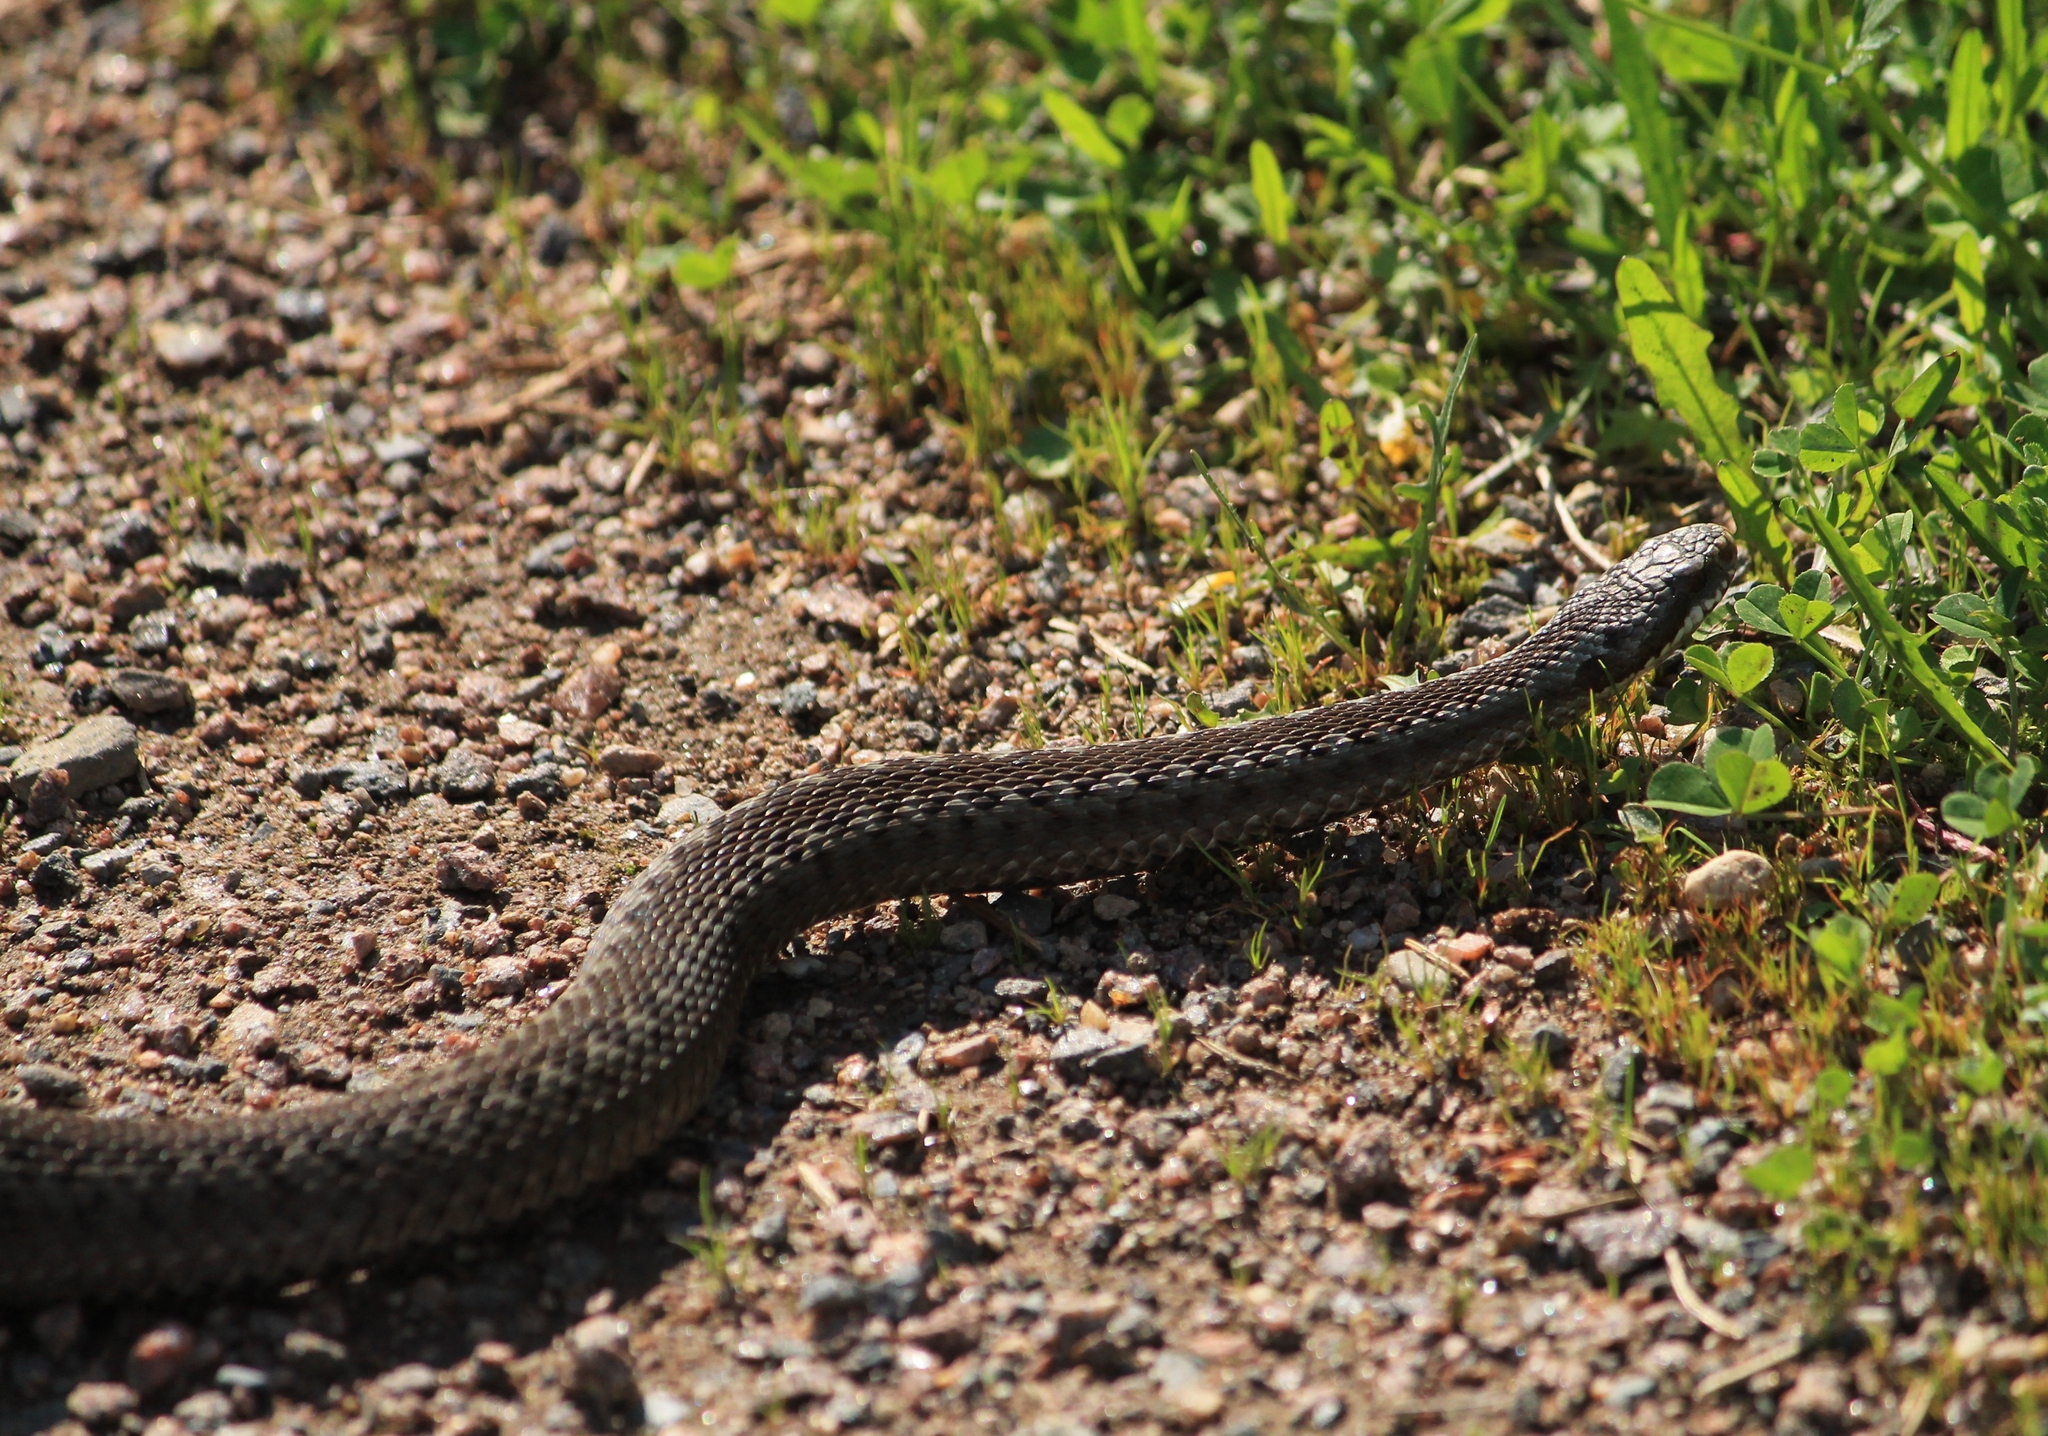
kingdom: Animalia
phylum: Chordata
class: Squamata
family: Viperidae
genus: Vipera
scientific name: Vipera berus
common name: Adder
